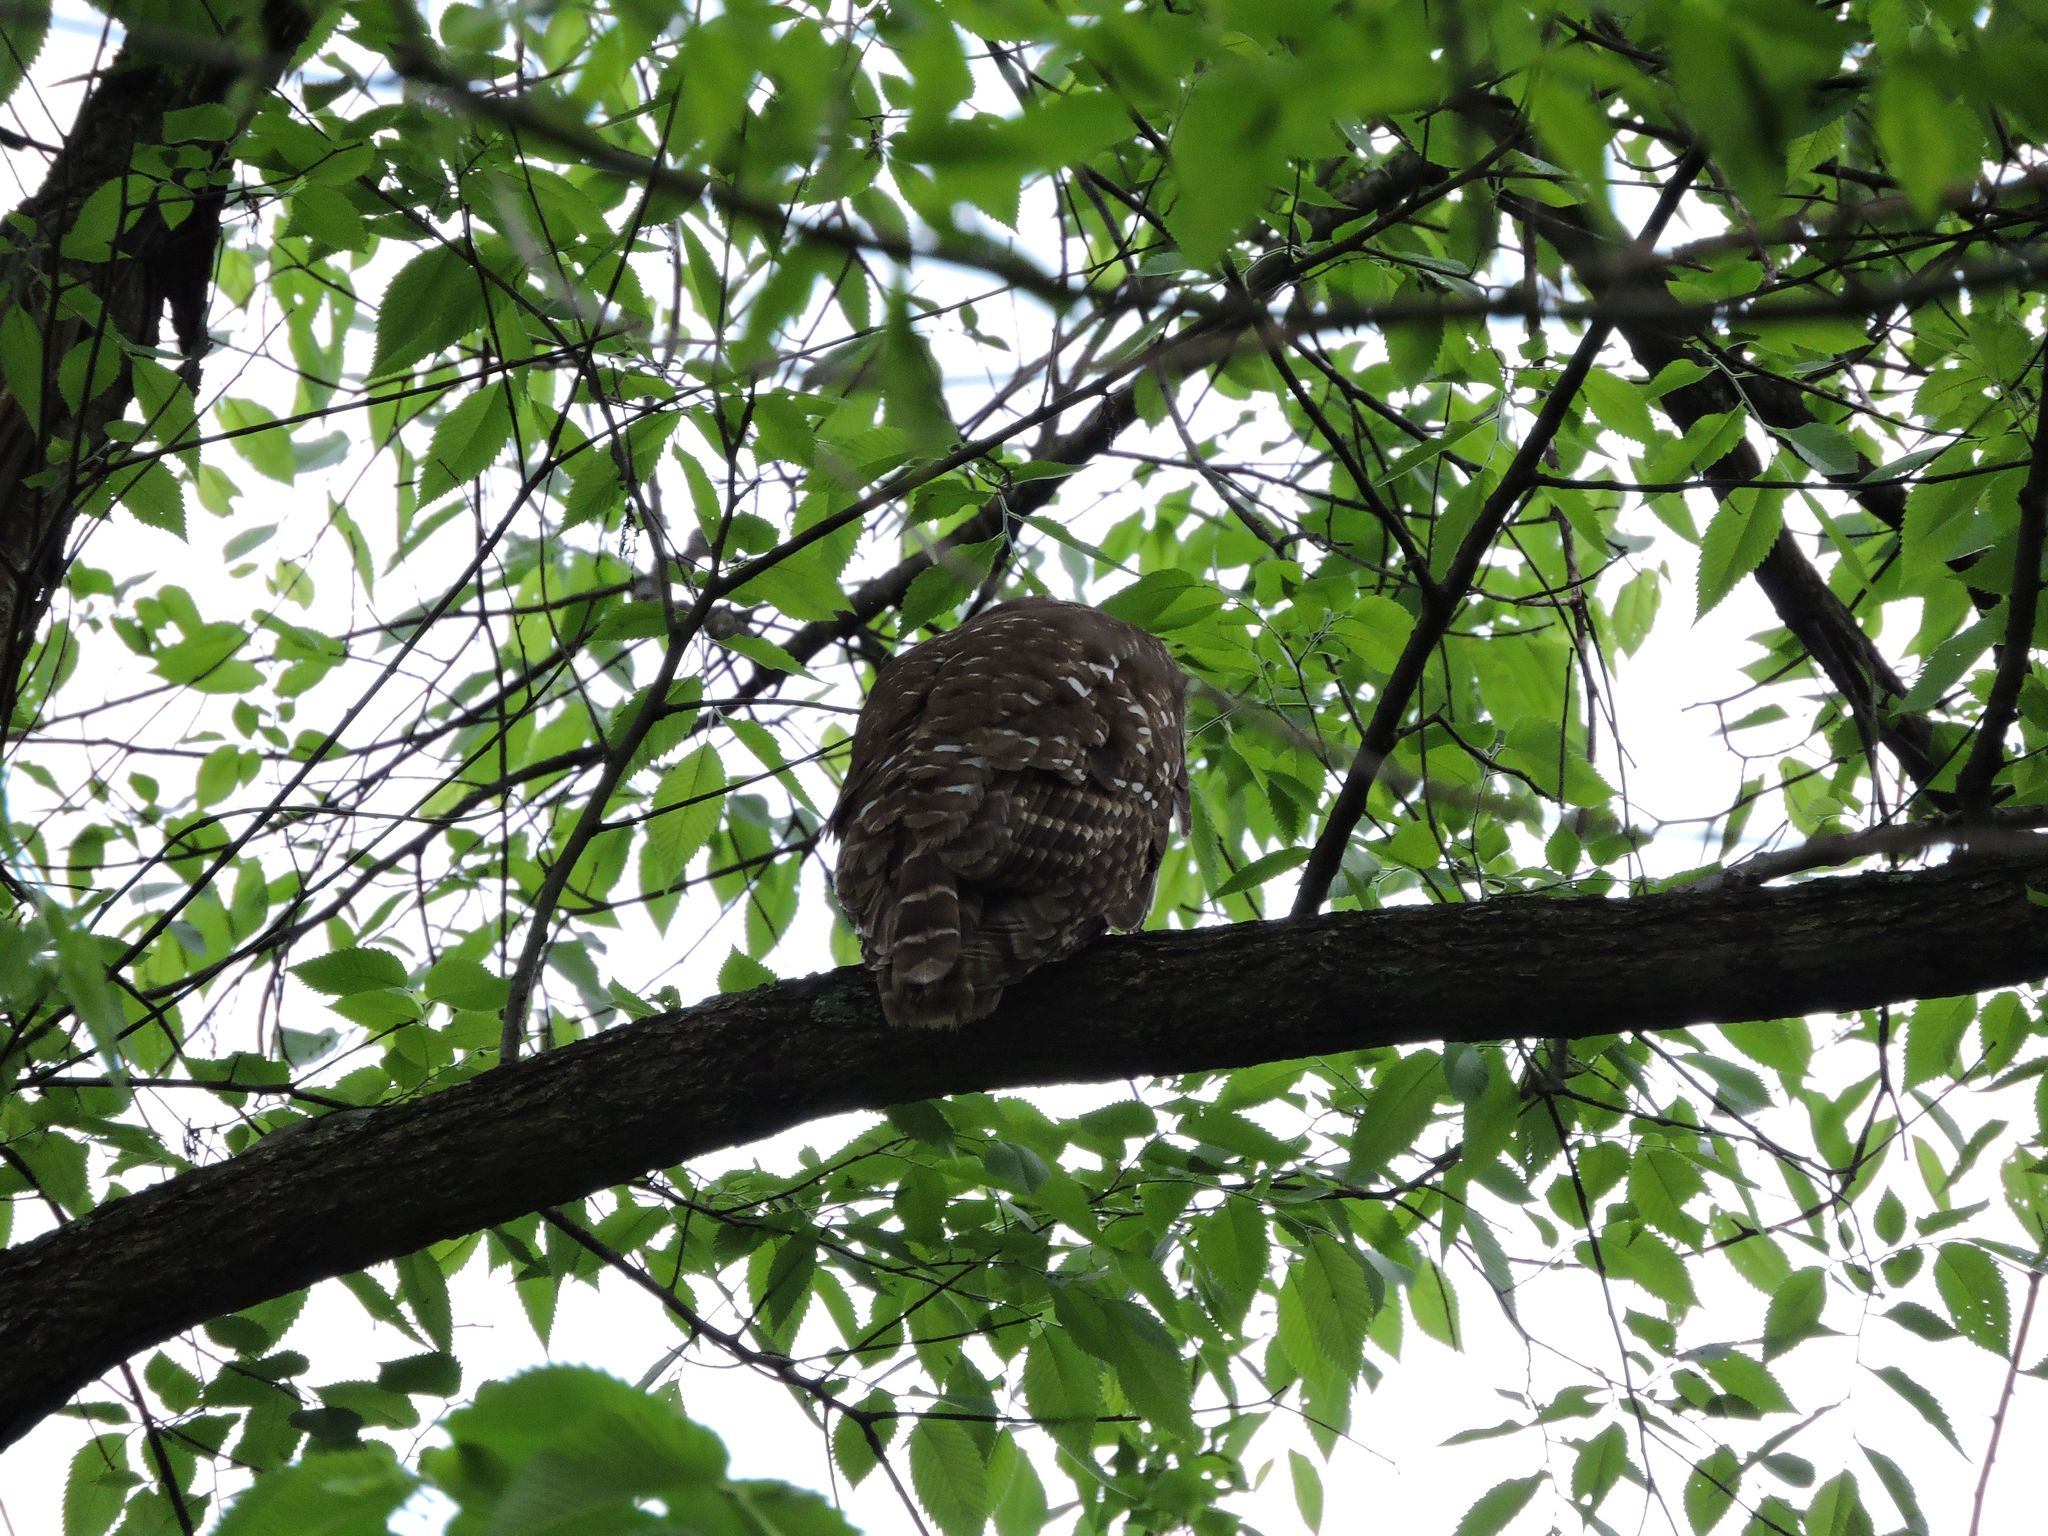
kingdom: Animalia
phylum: Chordata
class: Aves
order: Strigiformes
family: Strigidae
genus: Strix
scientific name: Strix varia
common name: Barred owl
